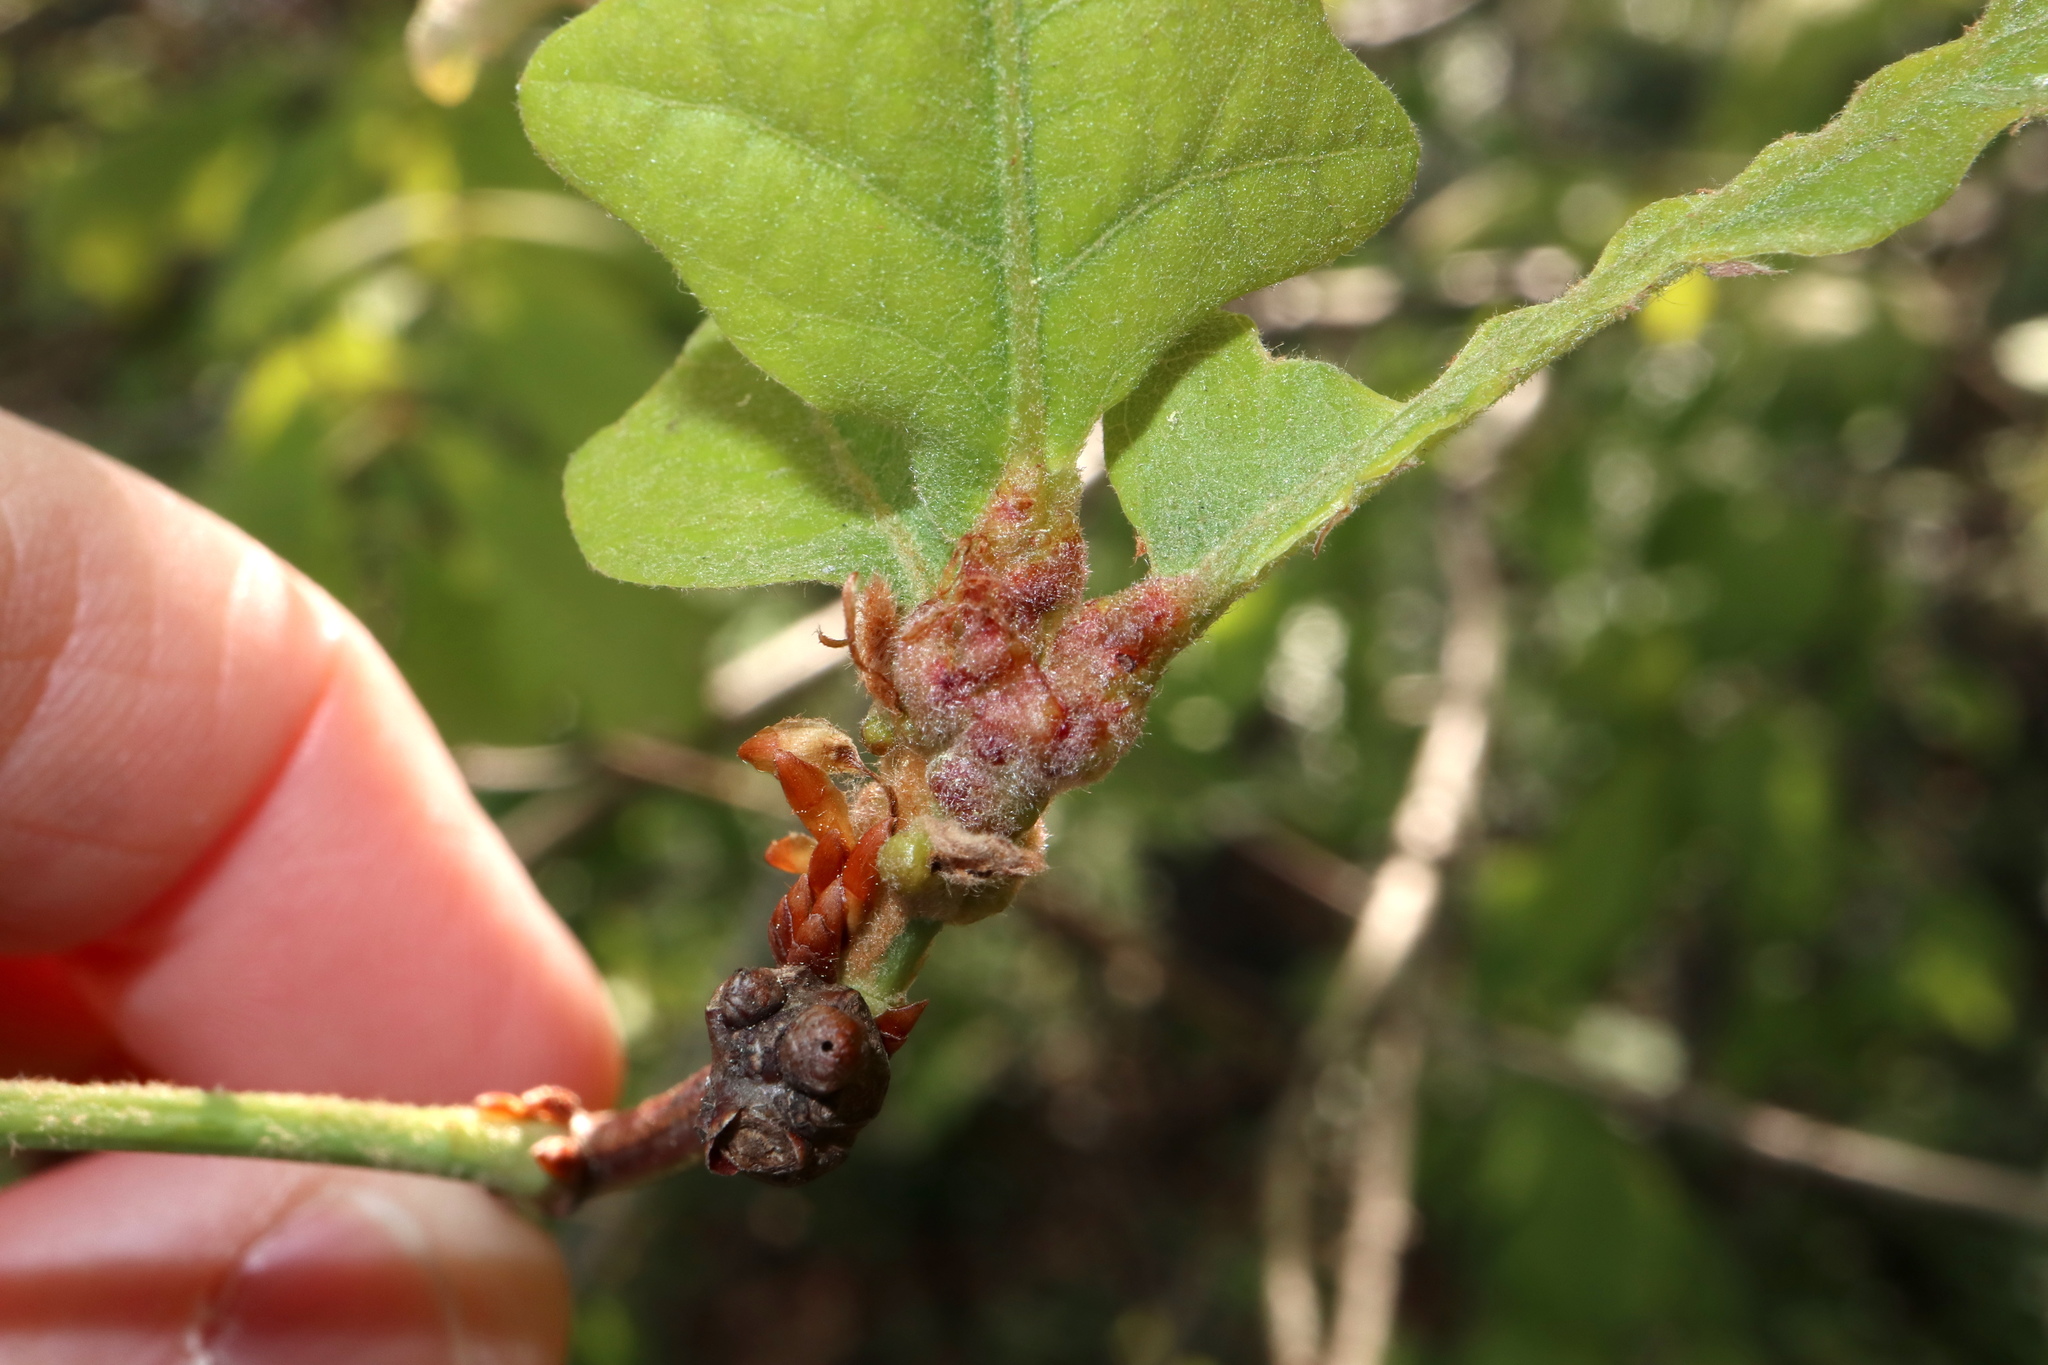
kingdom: Animalia
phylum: Arthropoda
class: Insecta
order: Hymenoptera
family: Cynipidae
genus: Neuroterus
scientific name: Neuroterus minutulus
